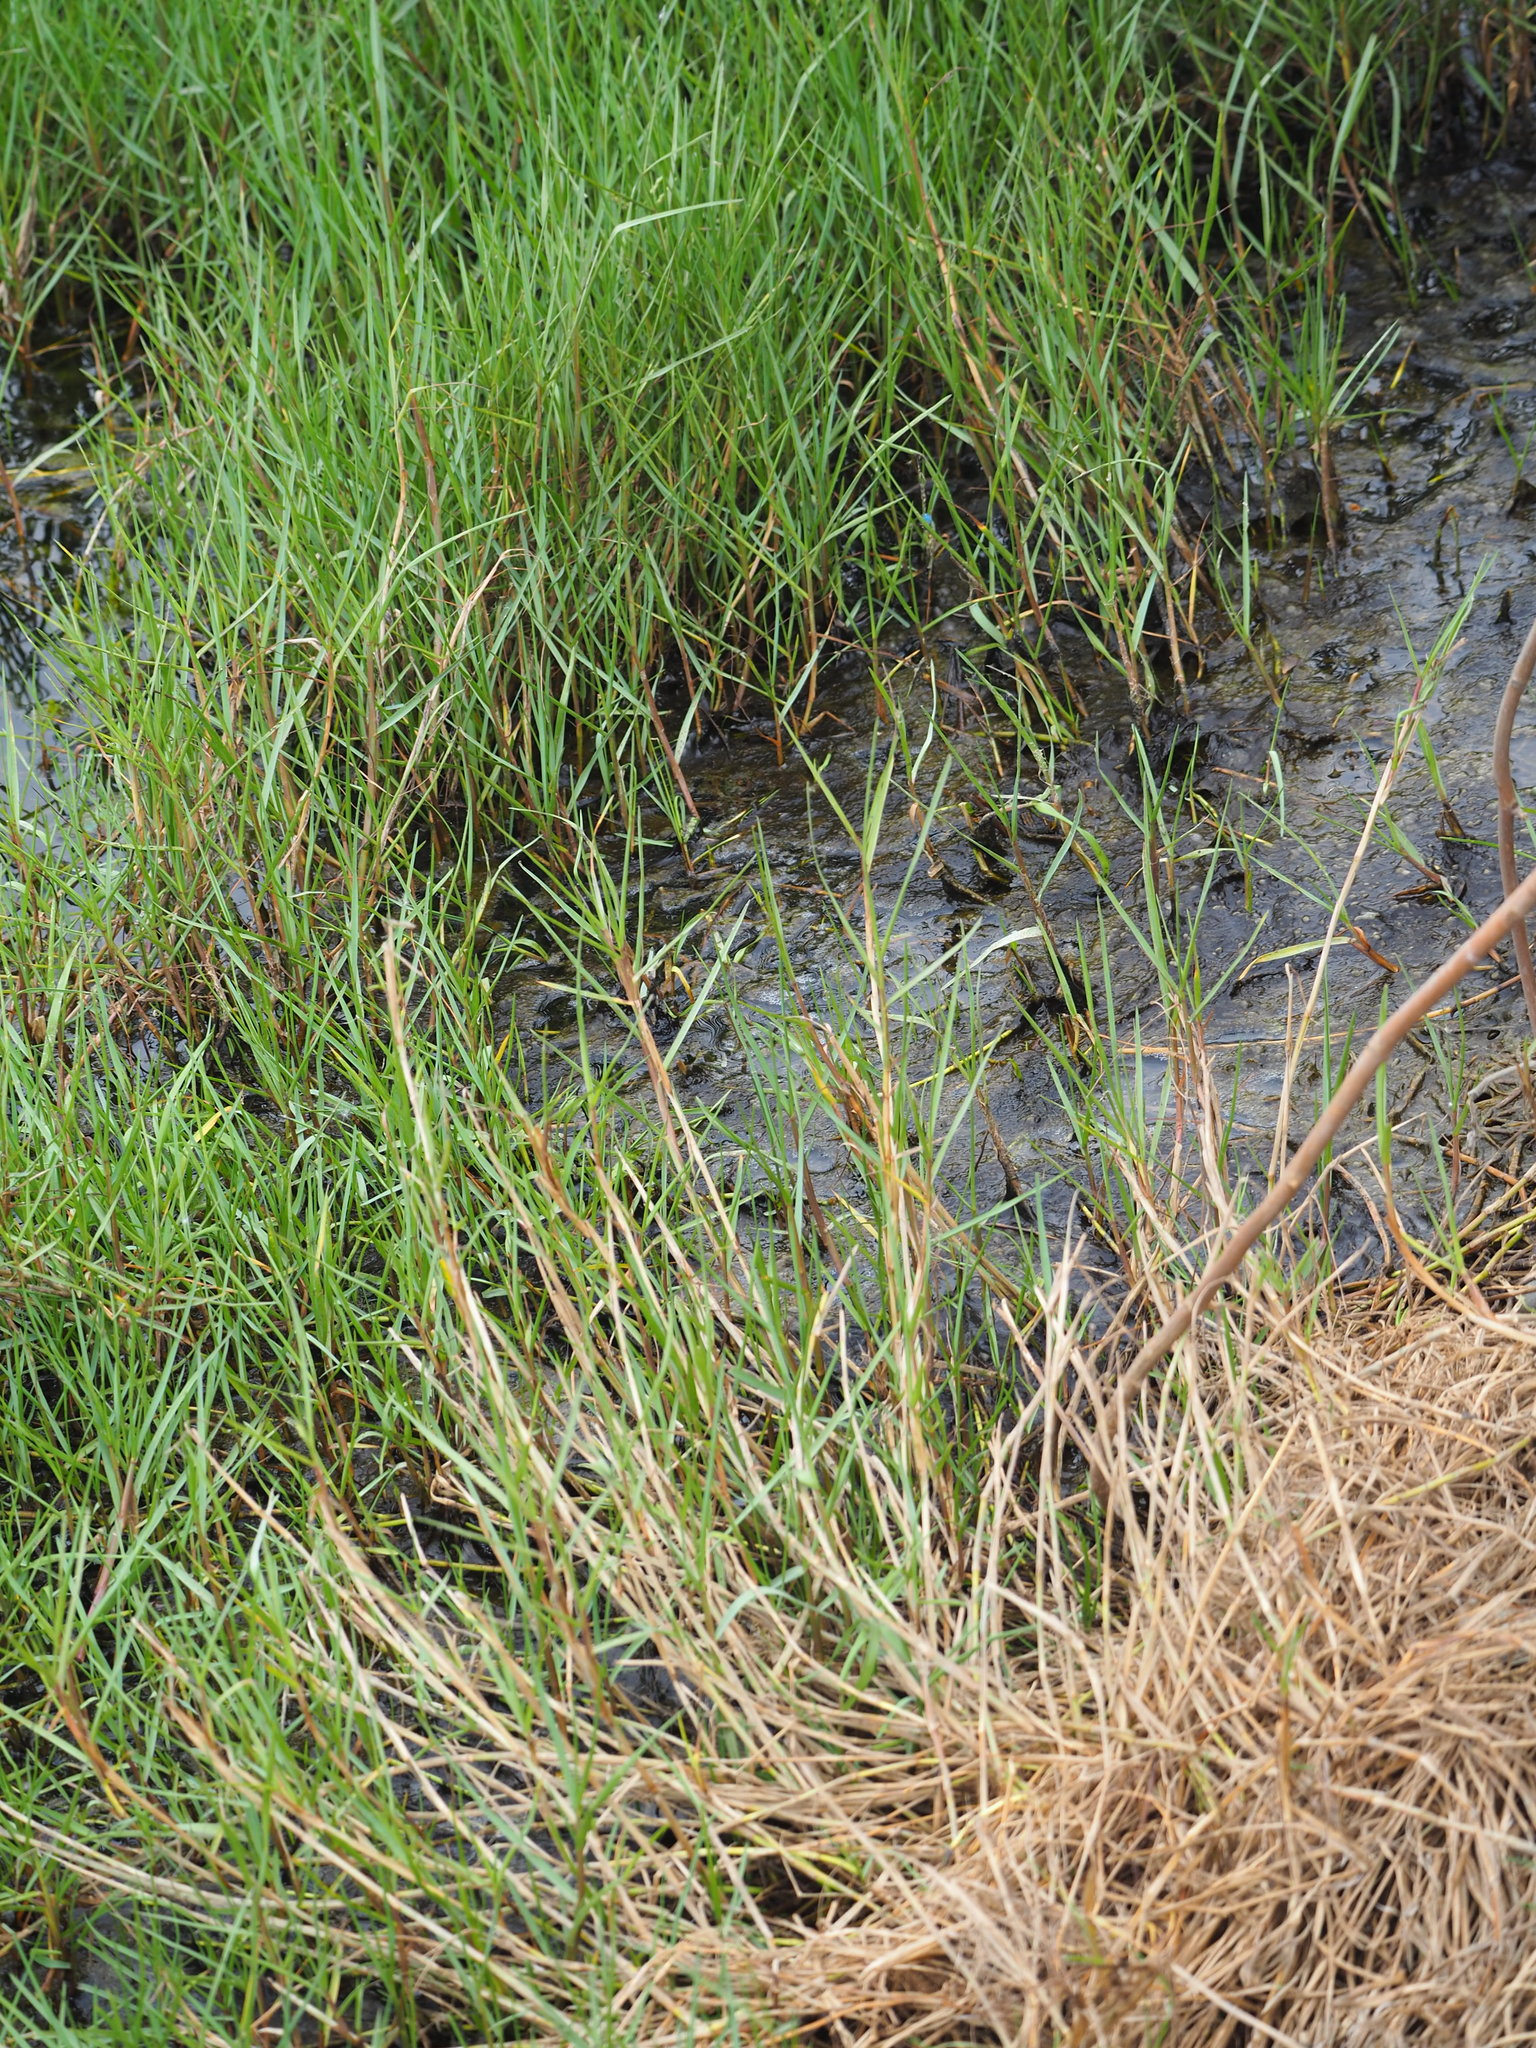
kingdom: Plantae
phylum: Tracheophyta
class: Liliopsida
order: Poales
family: Poaceae
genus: Paspalum
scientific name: Paspalum vaginatum
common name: Seashore paspalum
